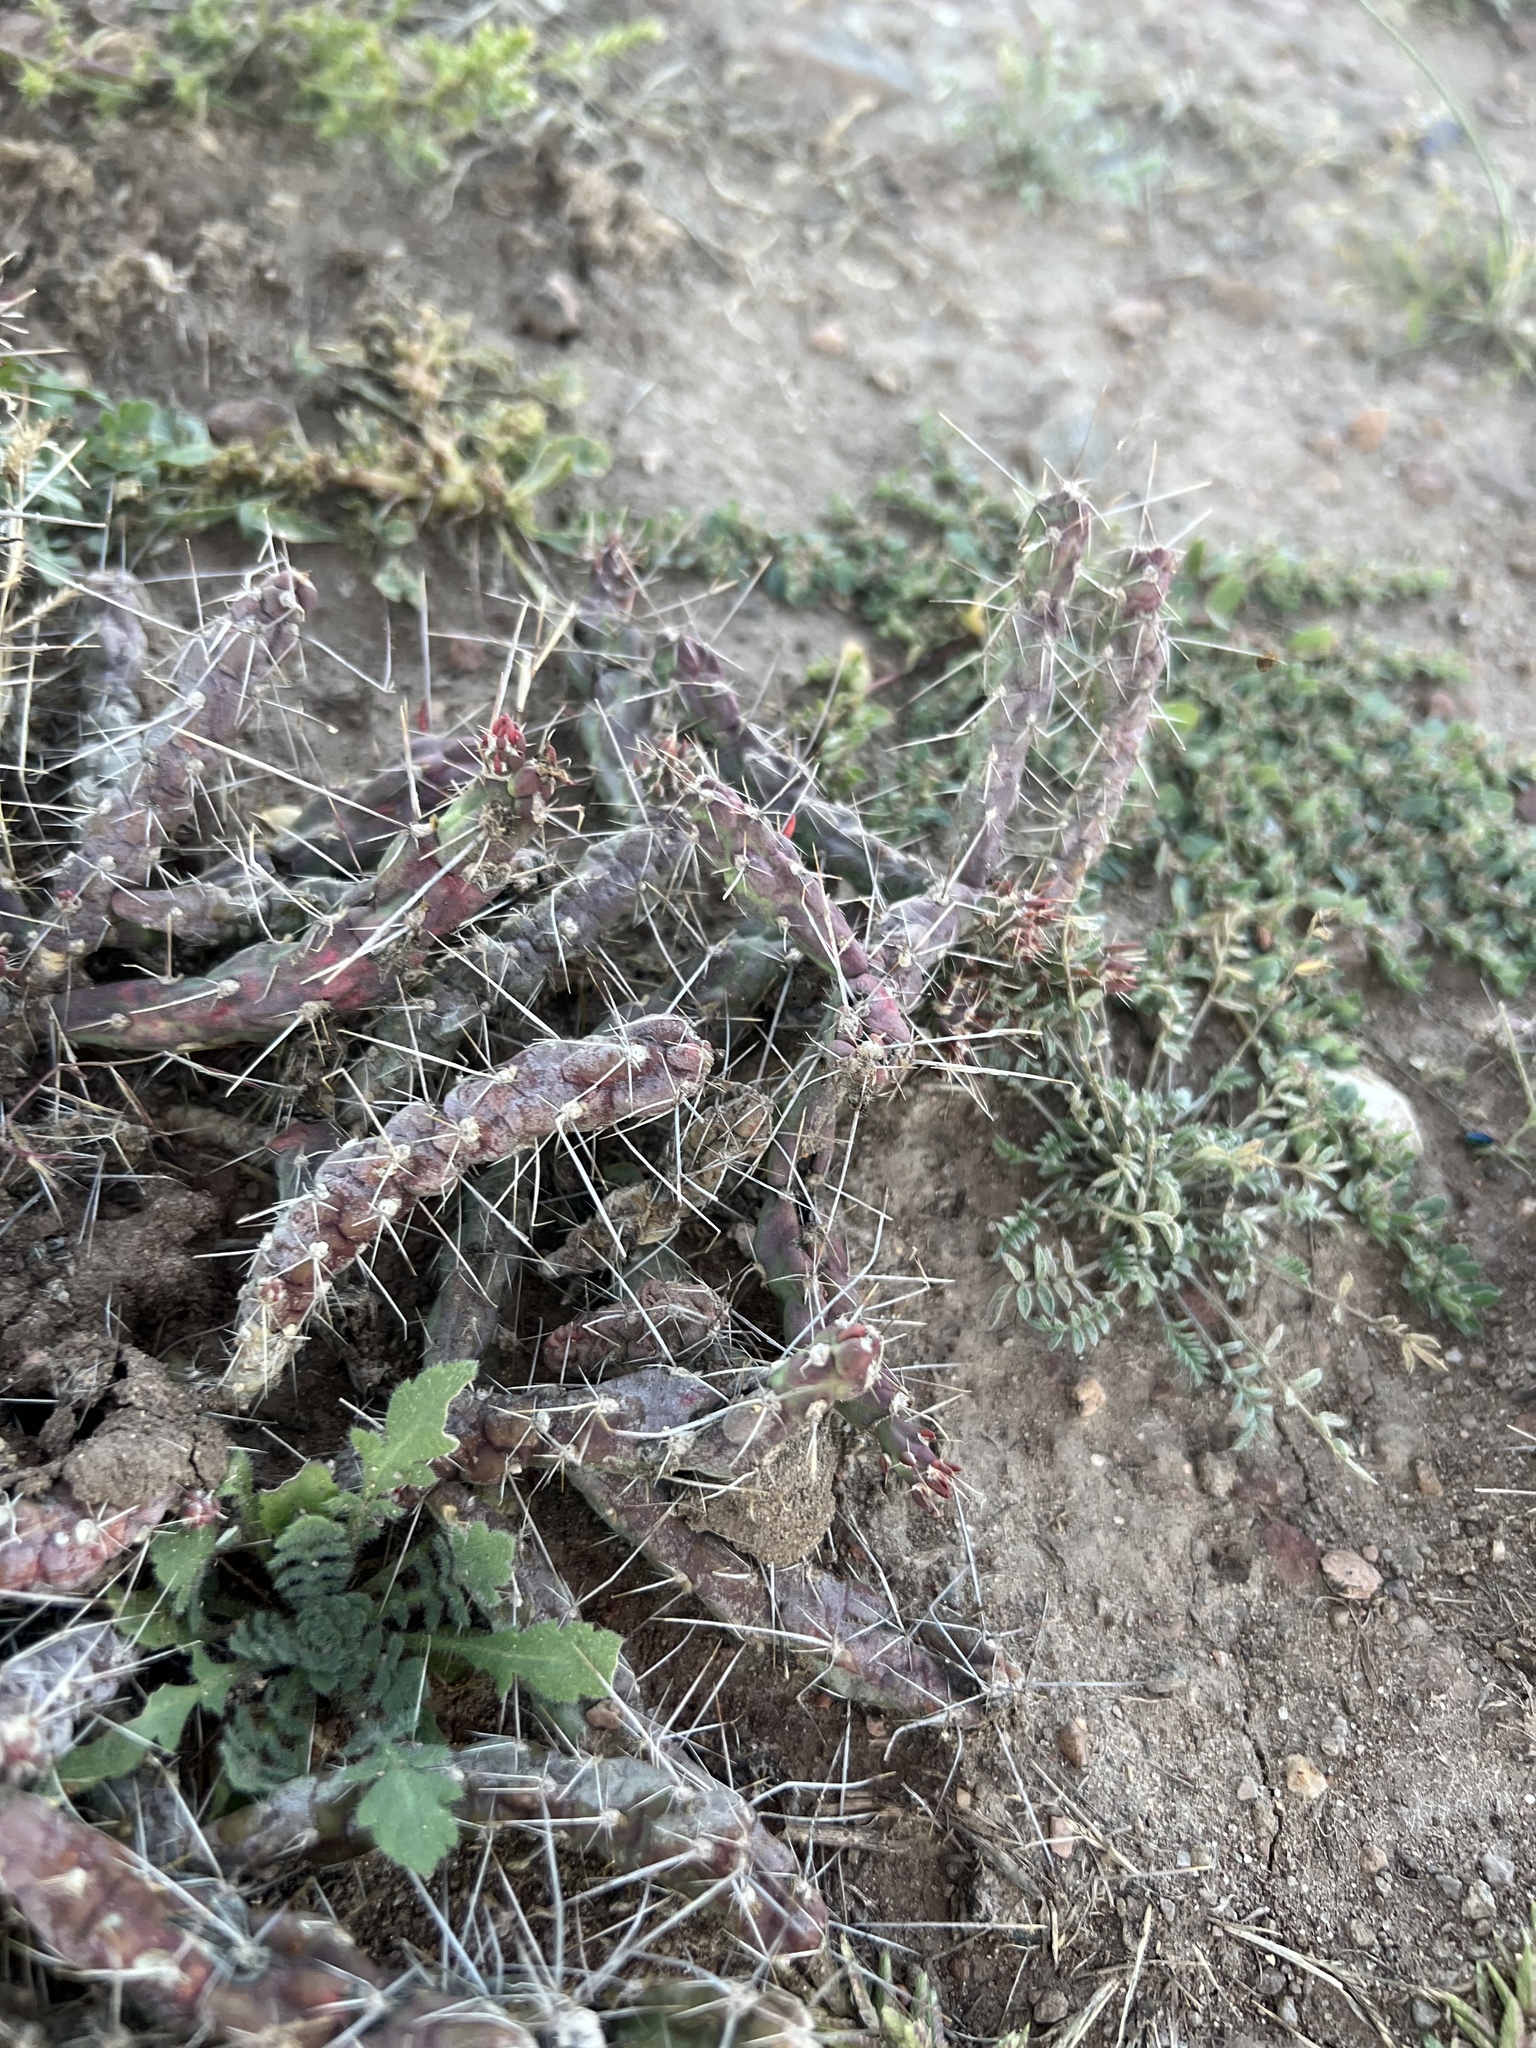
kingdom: Plantae
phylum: Tracheophyta
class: Magnoliopsida
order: Caryophyllales
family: Cactaceae
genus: Cylindropuntia
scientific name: Cylindropuntia davisii
